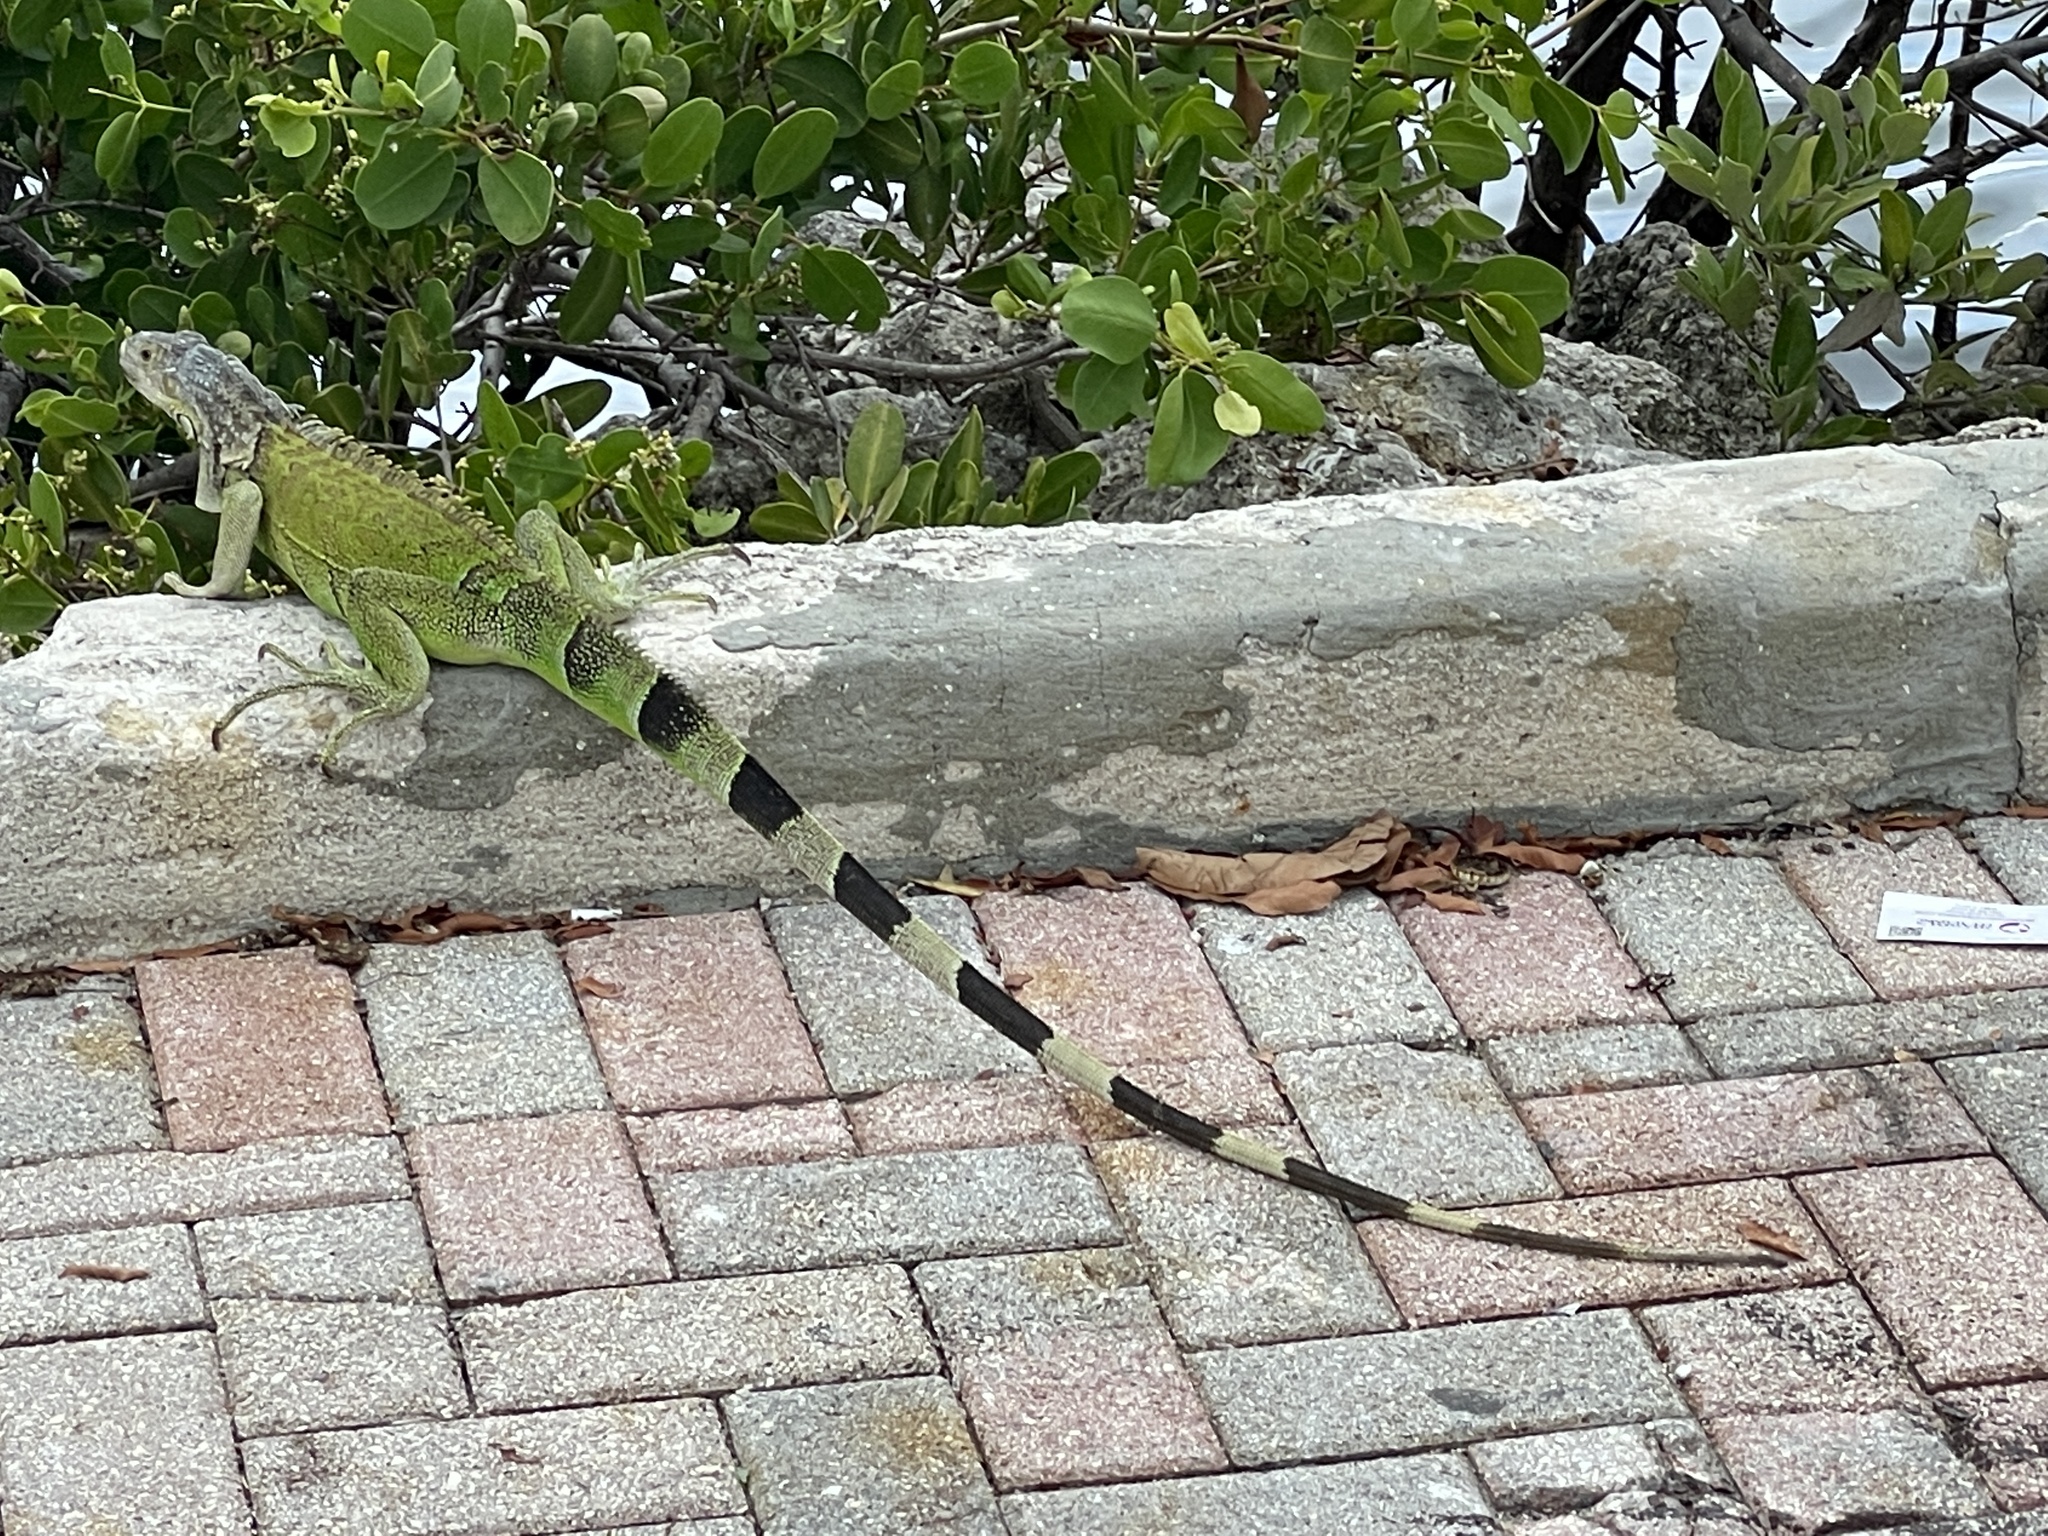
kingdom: Animalia
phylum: Chordata
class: Squamata
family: Iguanidae
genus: Iguana
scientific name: Iguana iguana
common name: Green iguana
